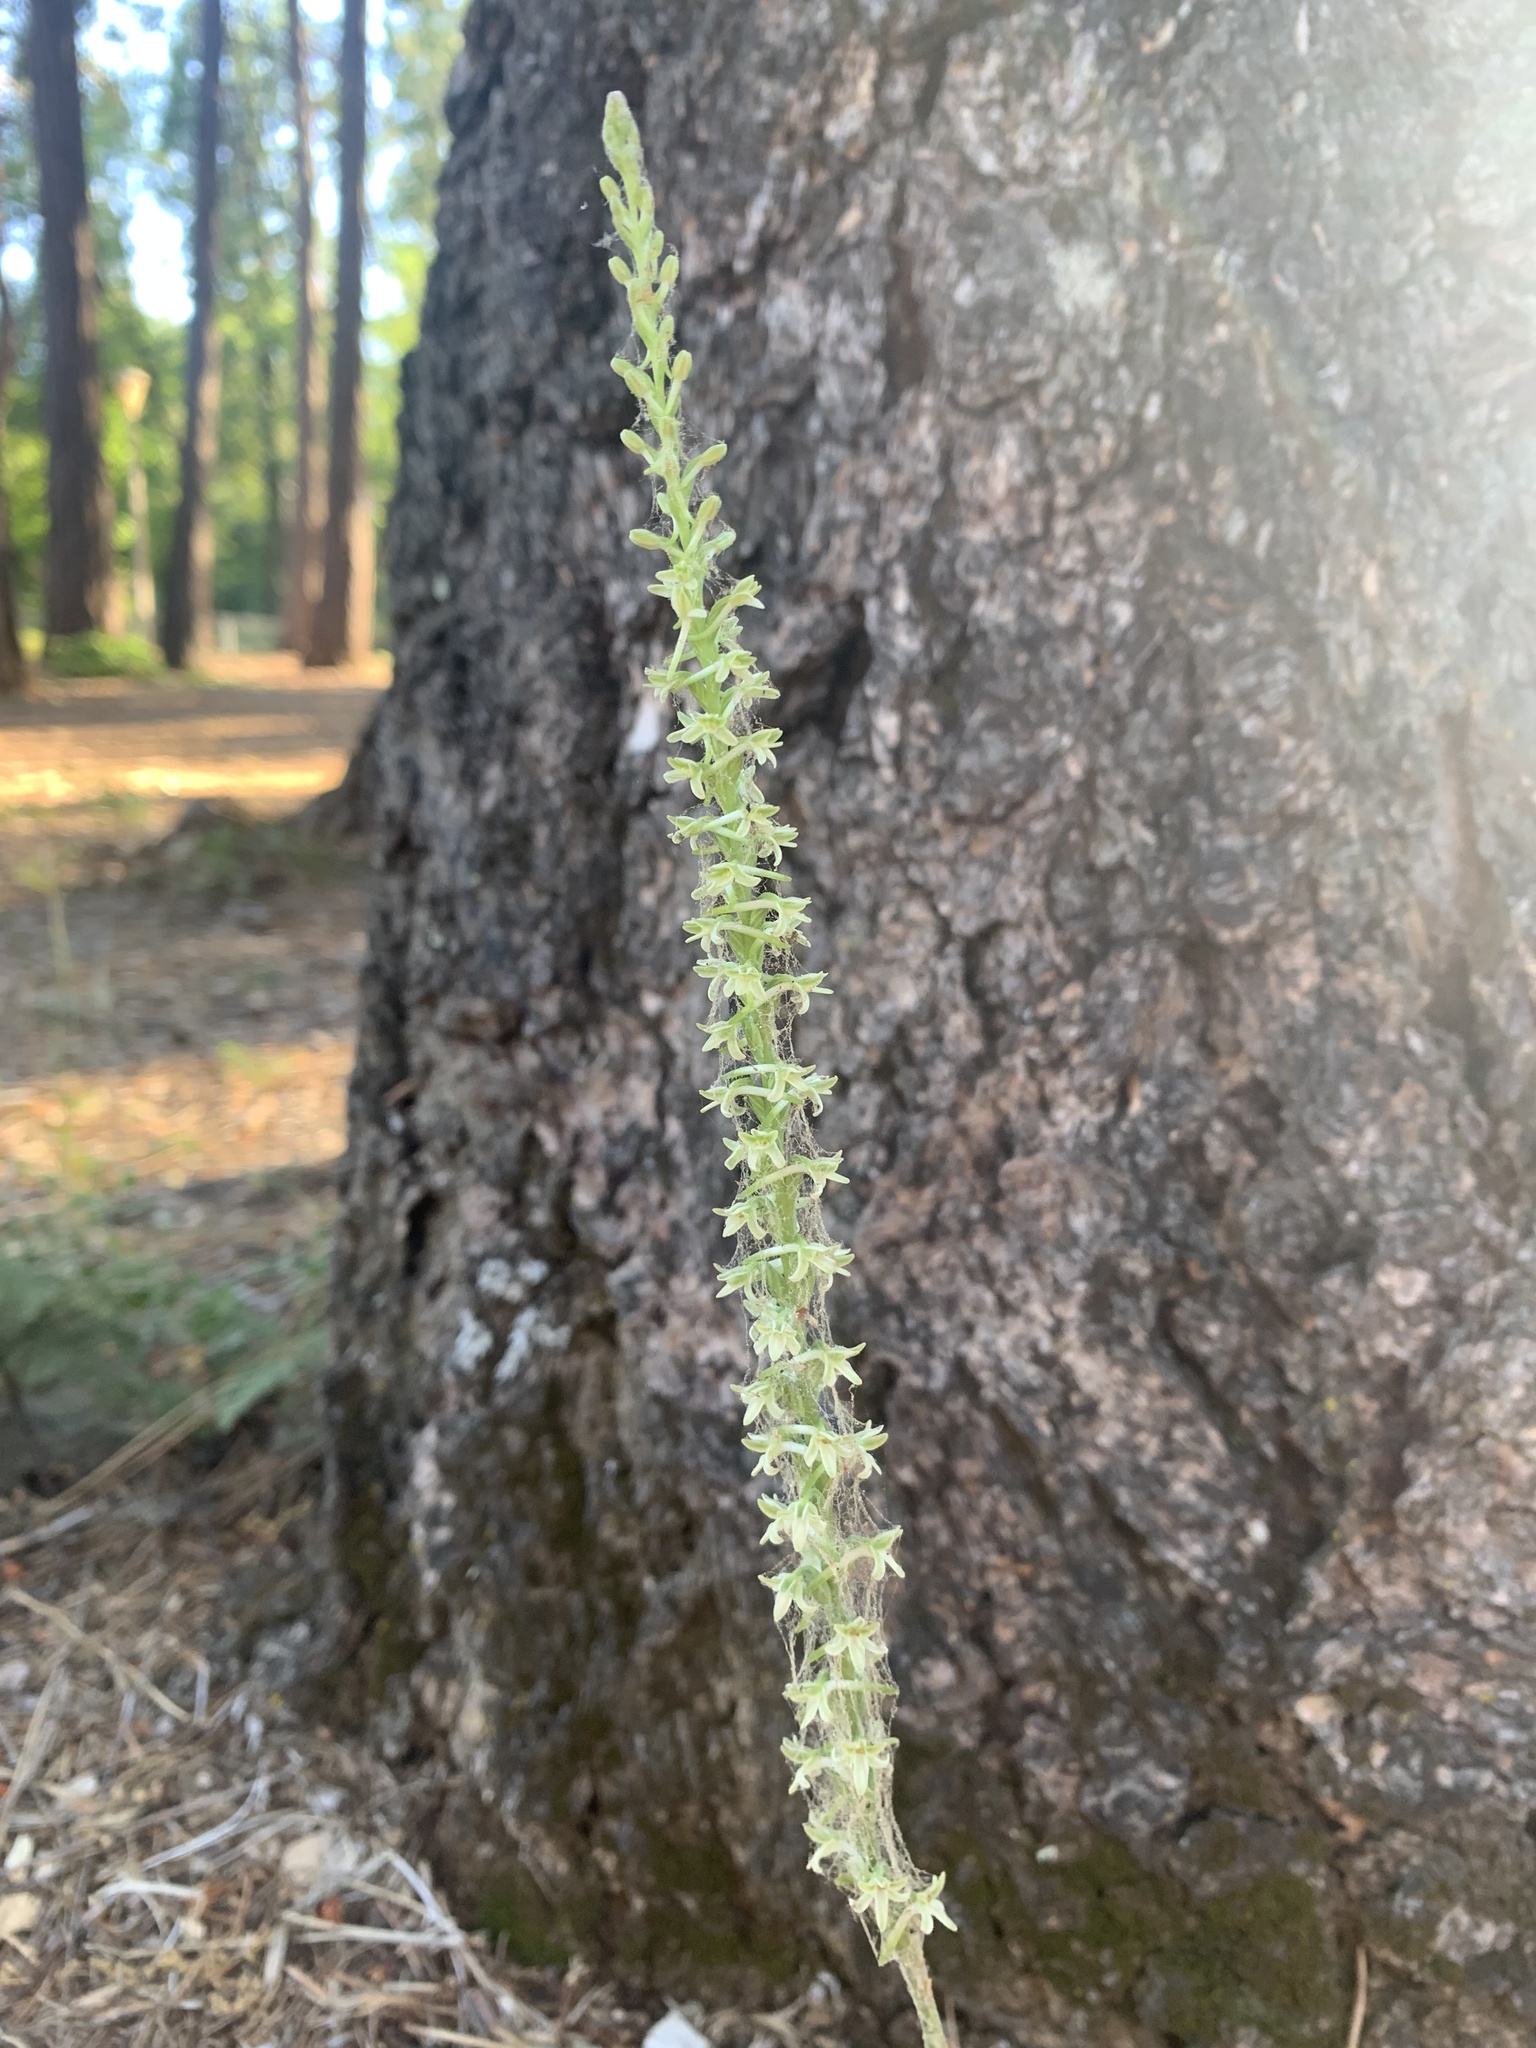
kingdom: Plantae
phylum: Tracheophyta
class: Liliopsida
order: Asparagales
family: Orchidaceae
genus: Platanthera
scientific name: Platanthera transversa
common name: Royal rein orchid
